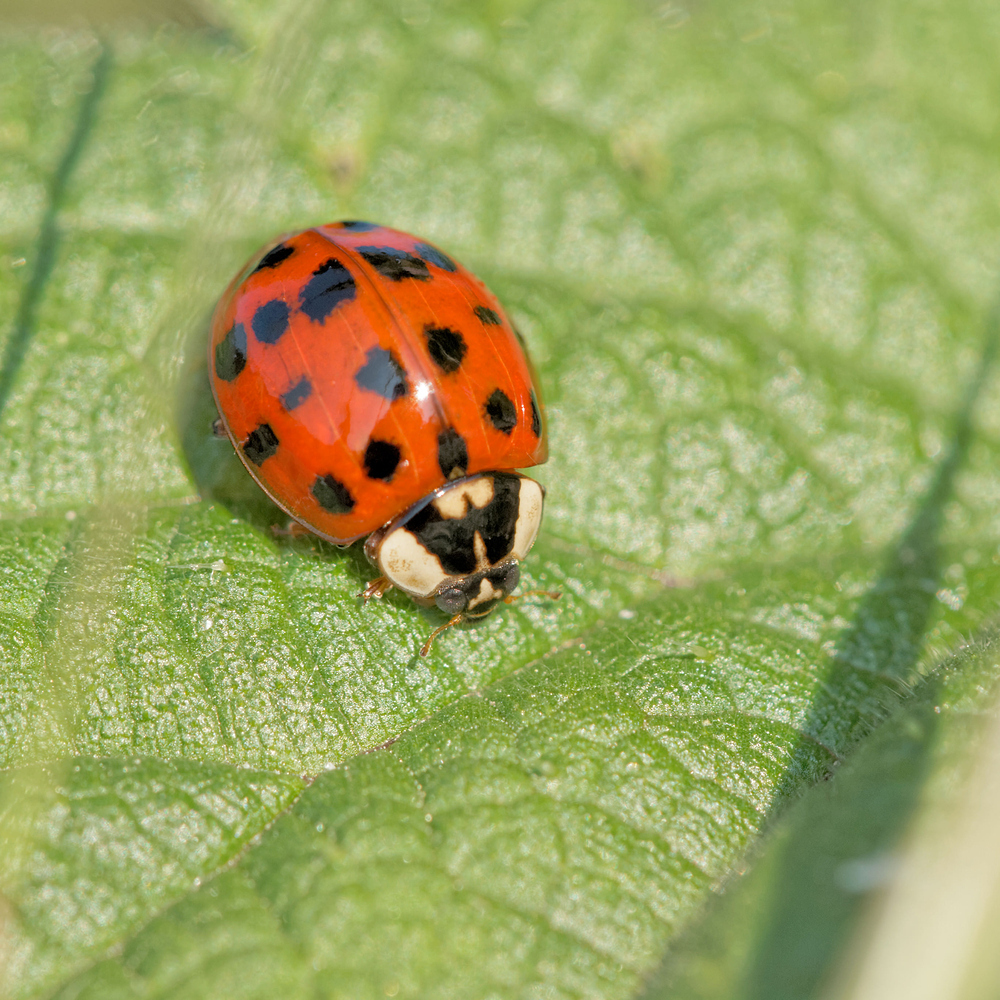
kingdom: Animalia
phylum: Arthropoda
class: Insecta
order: Coleoptera
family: Coccinellidae
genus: Harmonia
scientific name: Harmonia axyridis
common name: Harlequin ladybird
